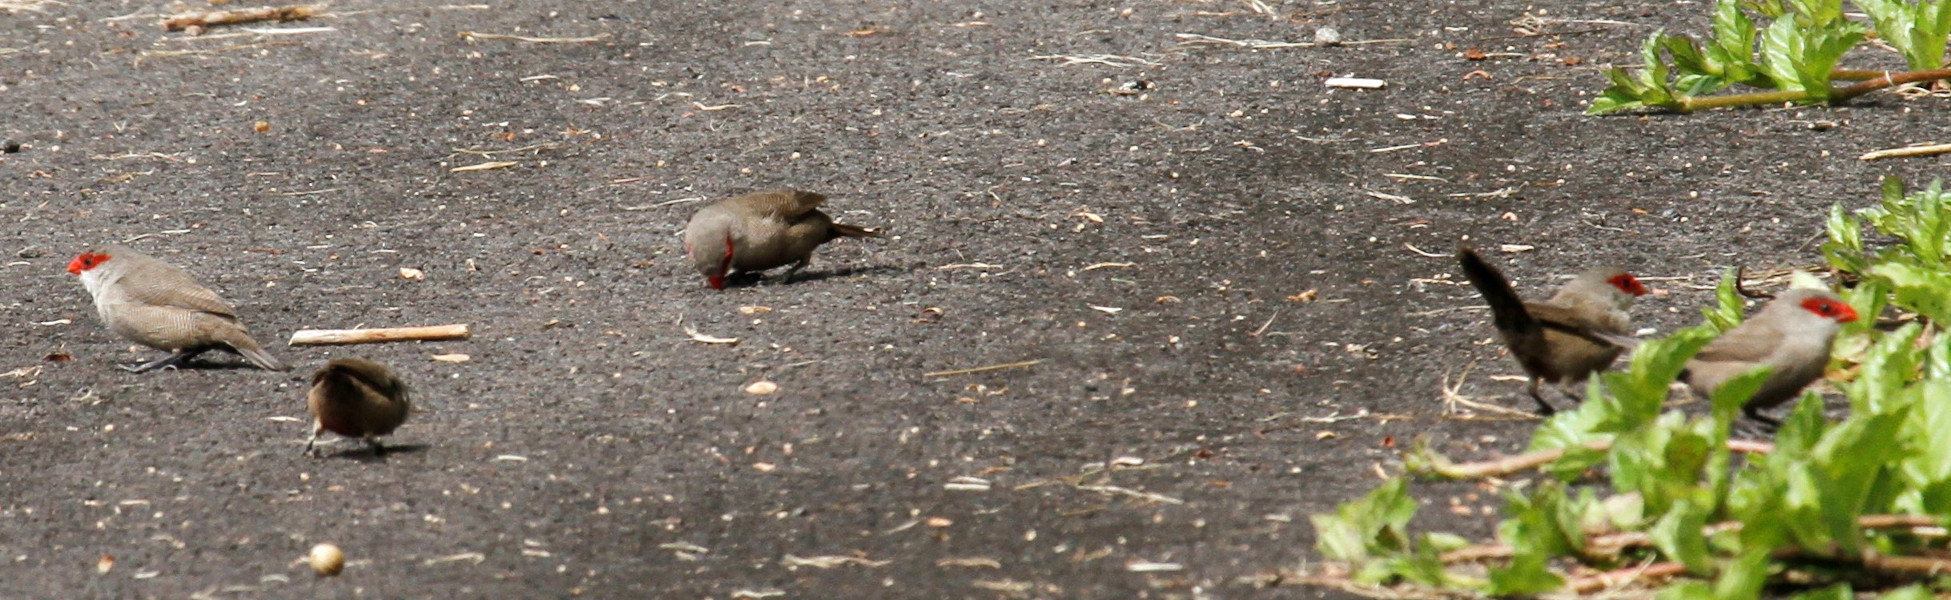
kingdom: Animalia
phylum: Chordata
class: Aves
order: Passeriformes
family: Estrildidae
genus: Estrilda
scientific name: Estrilda astrild
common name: Common waxbill
